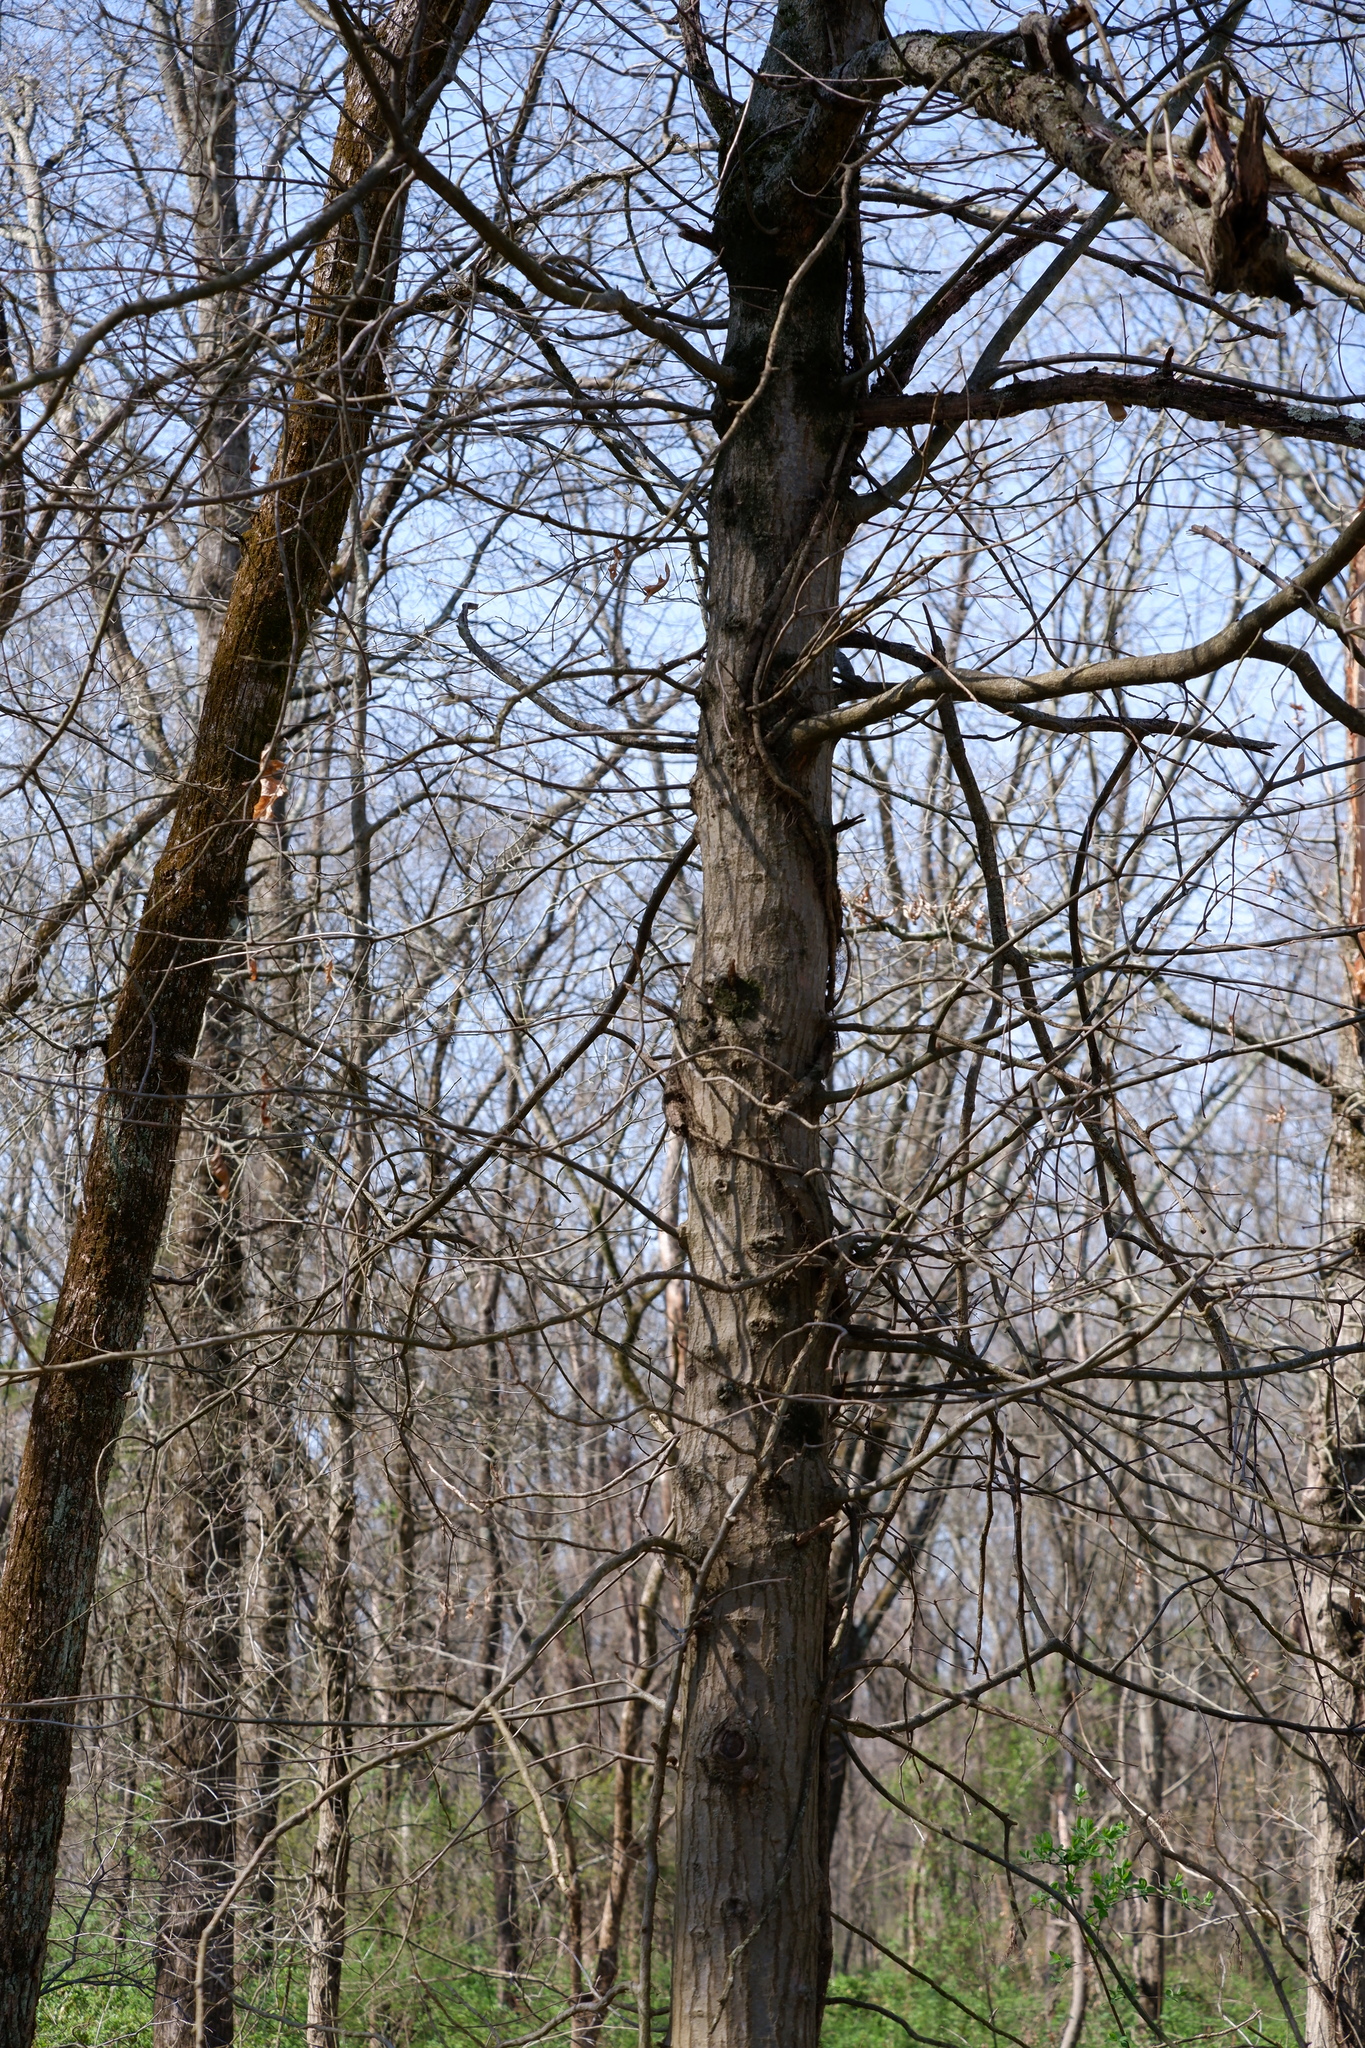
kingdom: Plantae
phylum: Tracheophyta
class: Magnoliopsida
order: Fagales
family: Fagaceae
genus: Quercus
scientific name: Quercus palustris
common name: Pin oak
